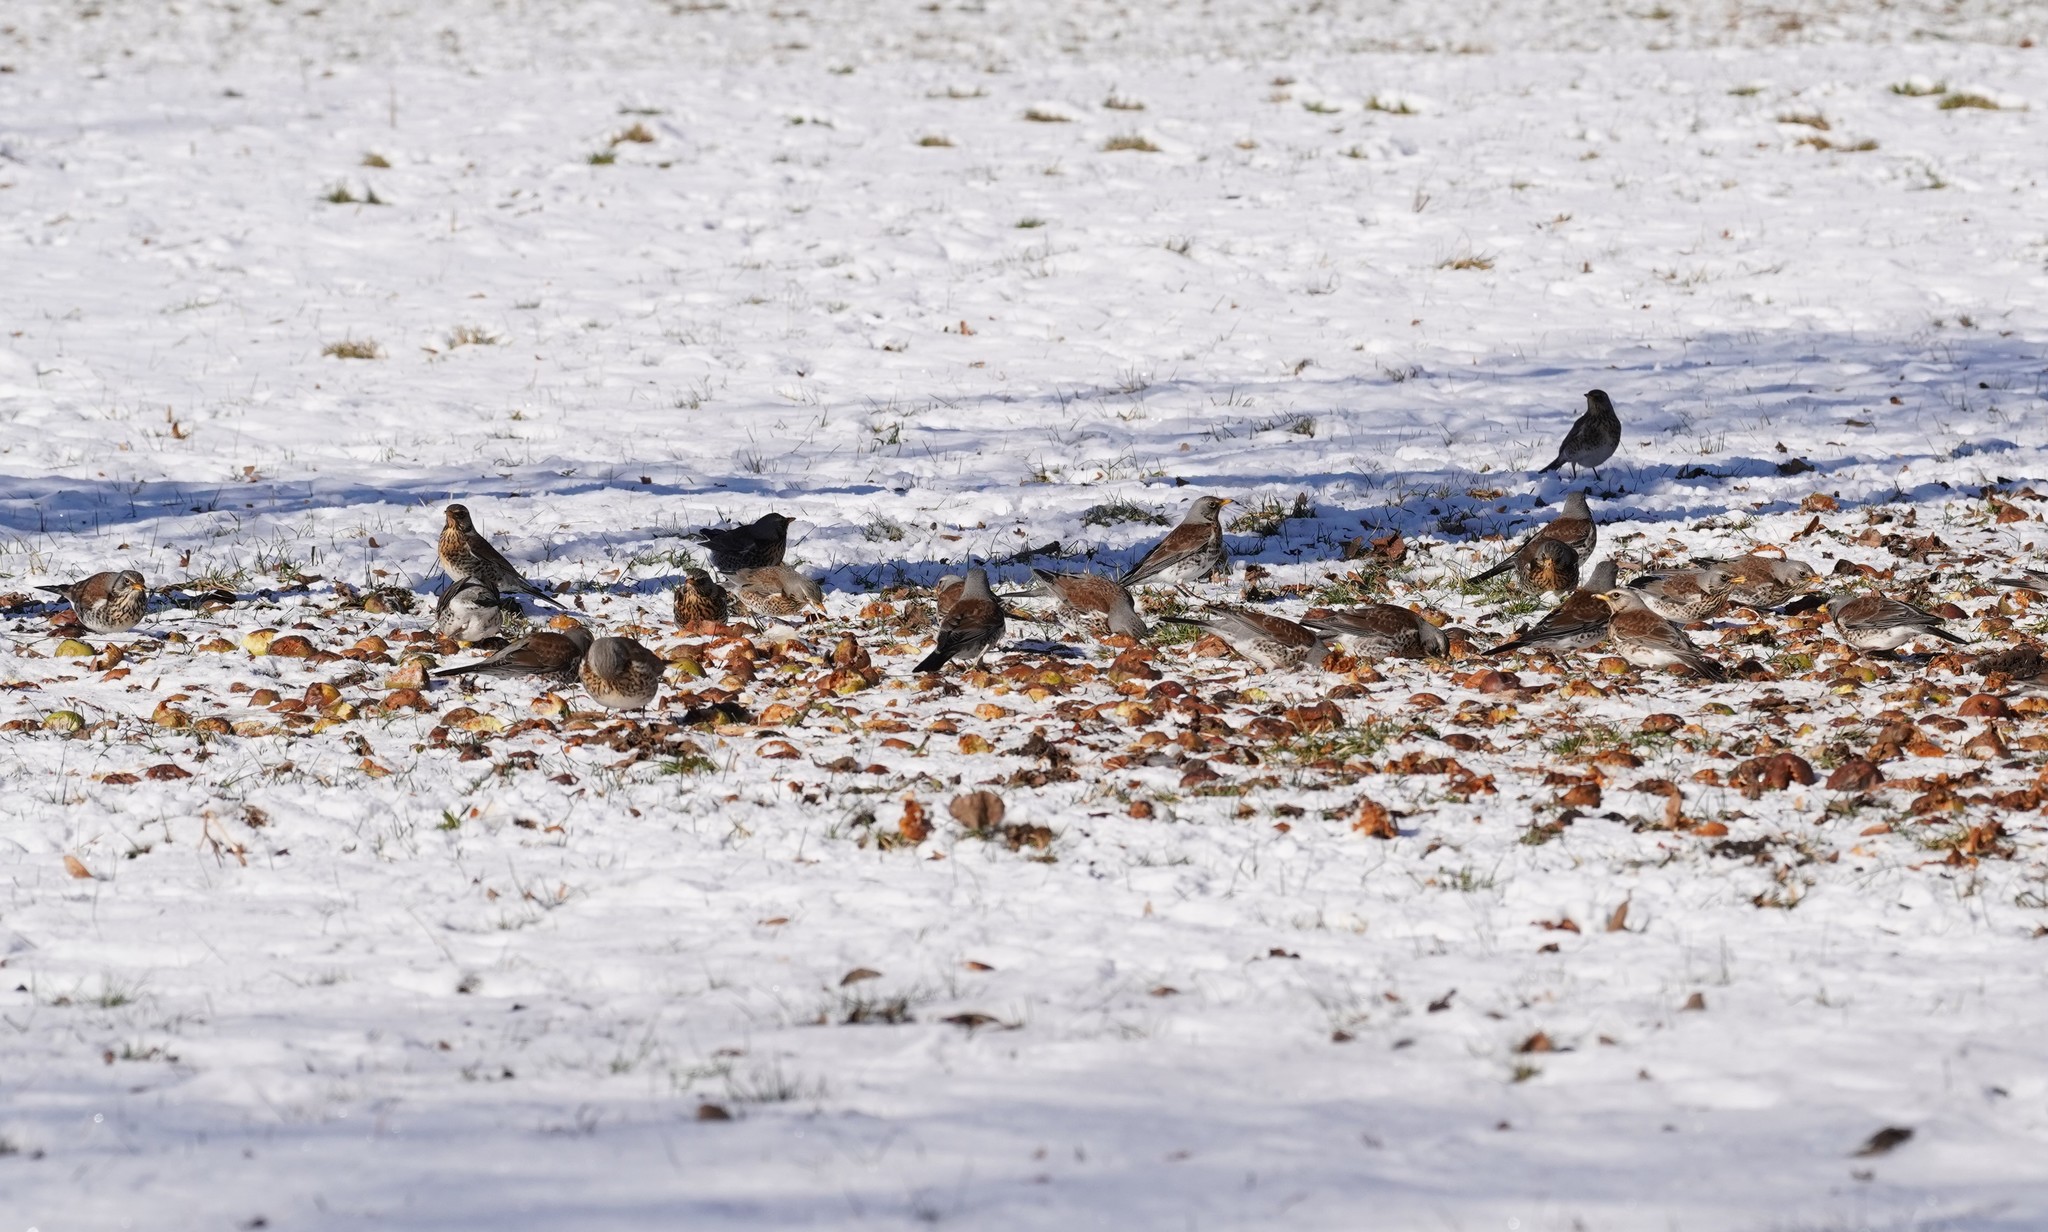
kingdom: Animalia
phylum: Chordata
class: Aves
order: Passeriformes
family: Turdidae
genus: Turdus
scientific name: Turdus pilaris
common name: Fieldfare
